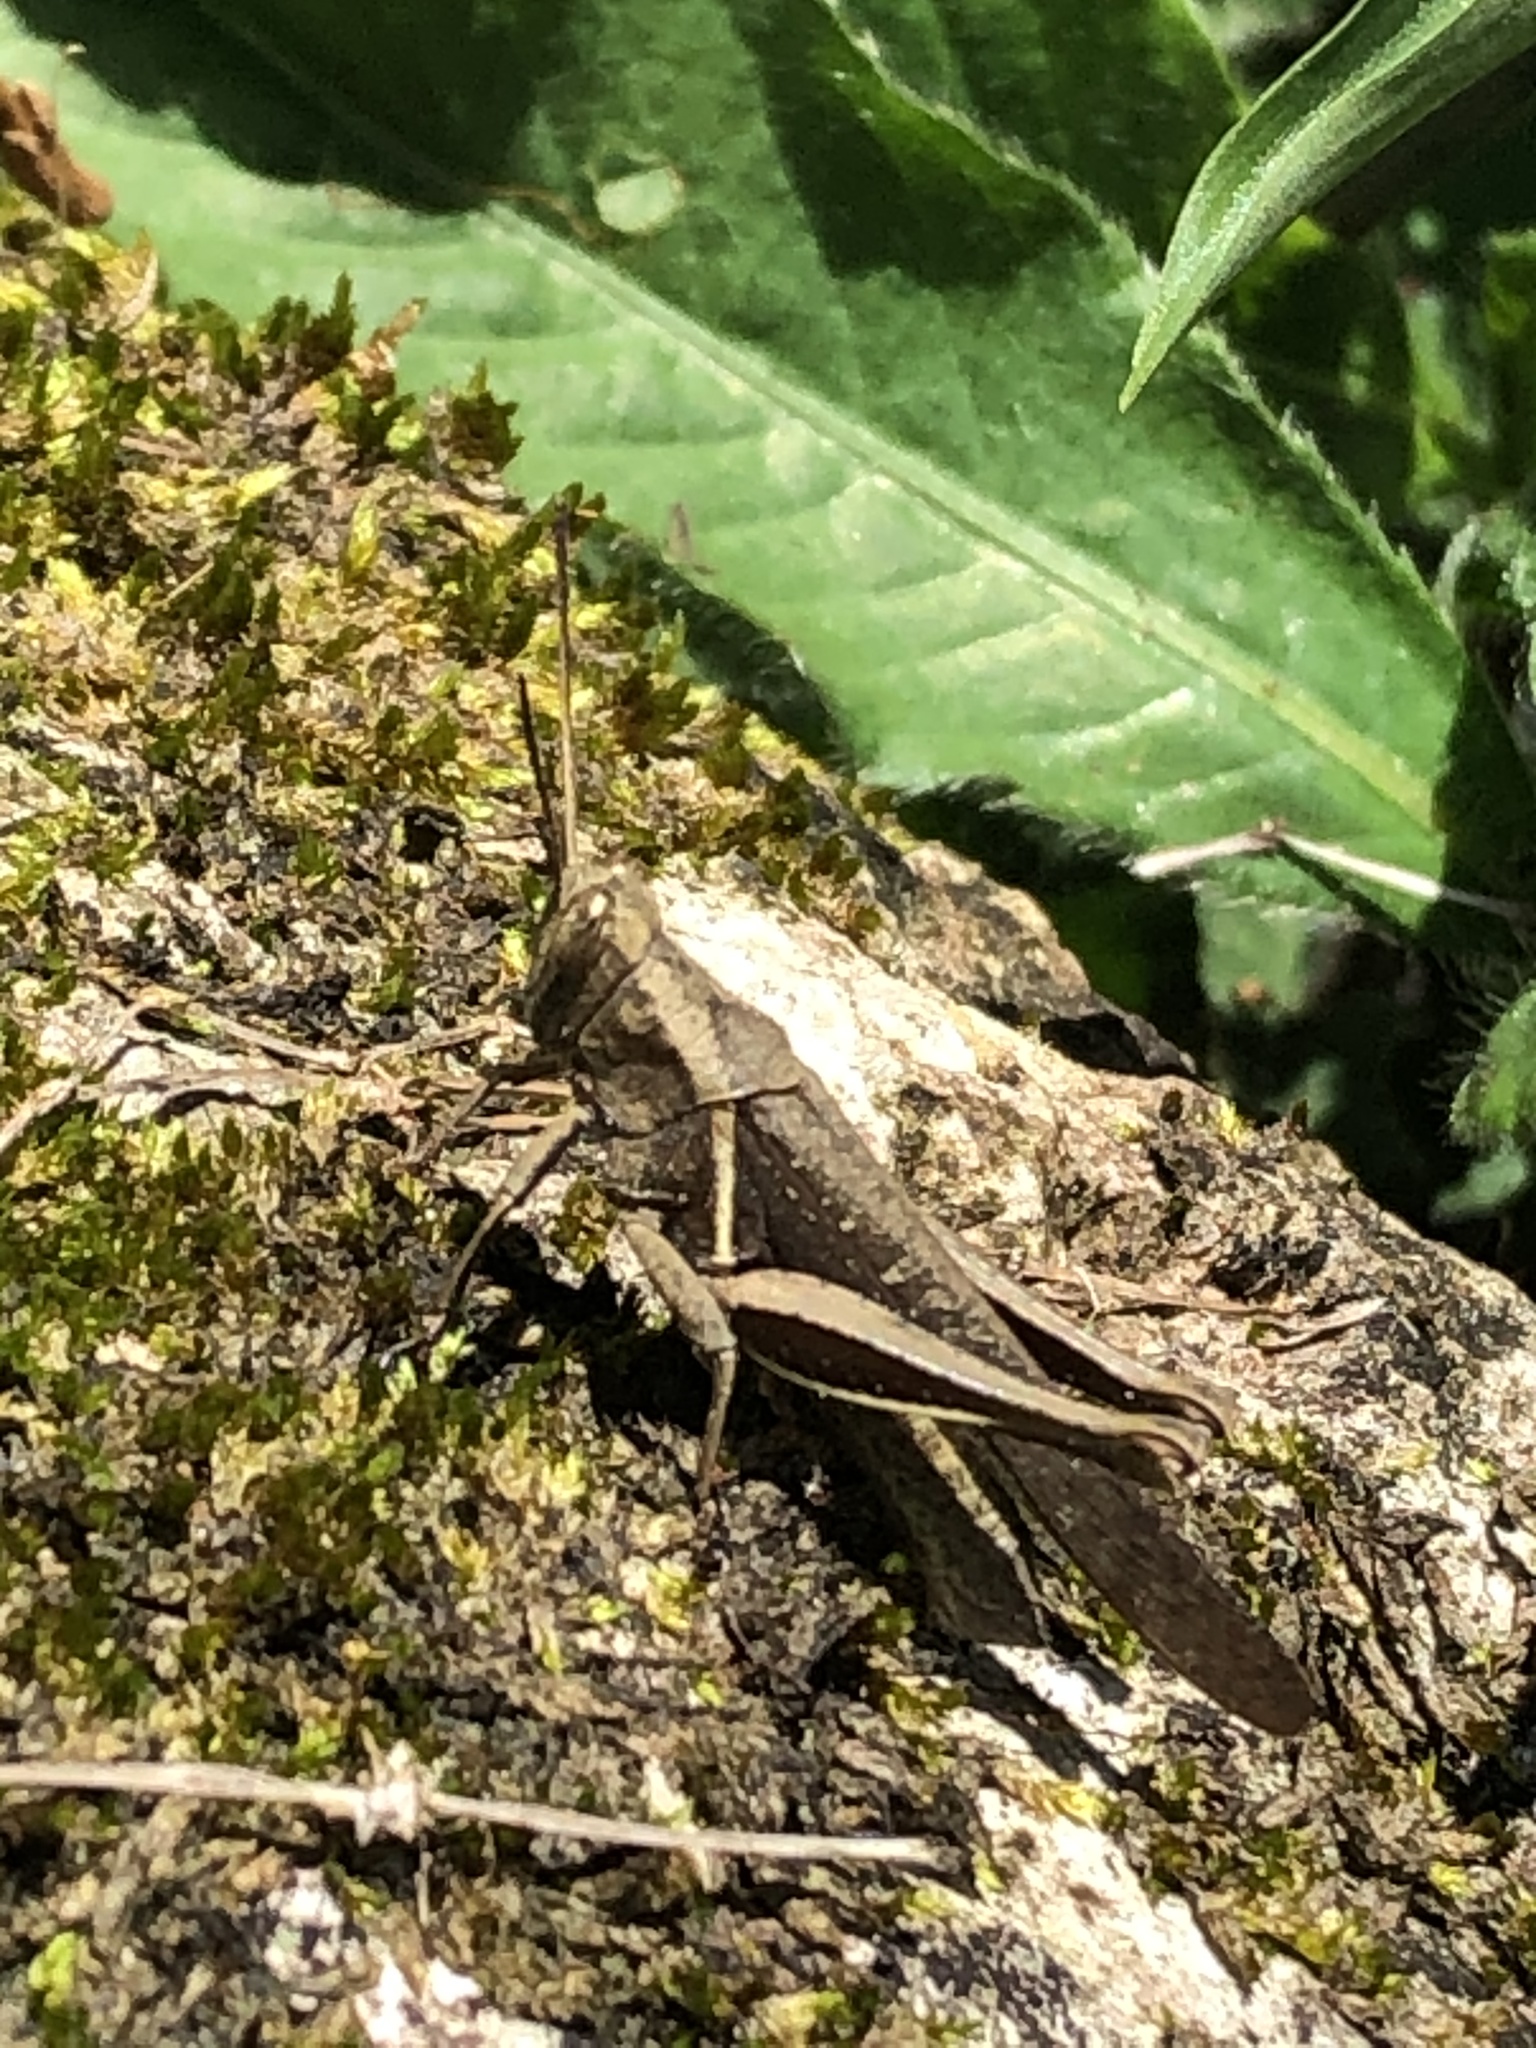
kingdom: Animalia
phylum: Arthropoda
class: Insecta
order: Orthoptera
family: Acrididae
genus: Abracris
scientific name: Abracris flavolineata
